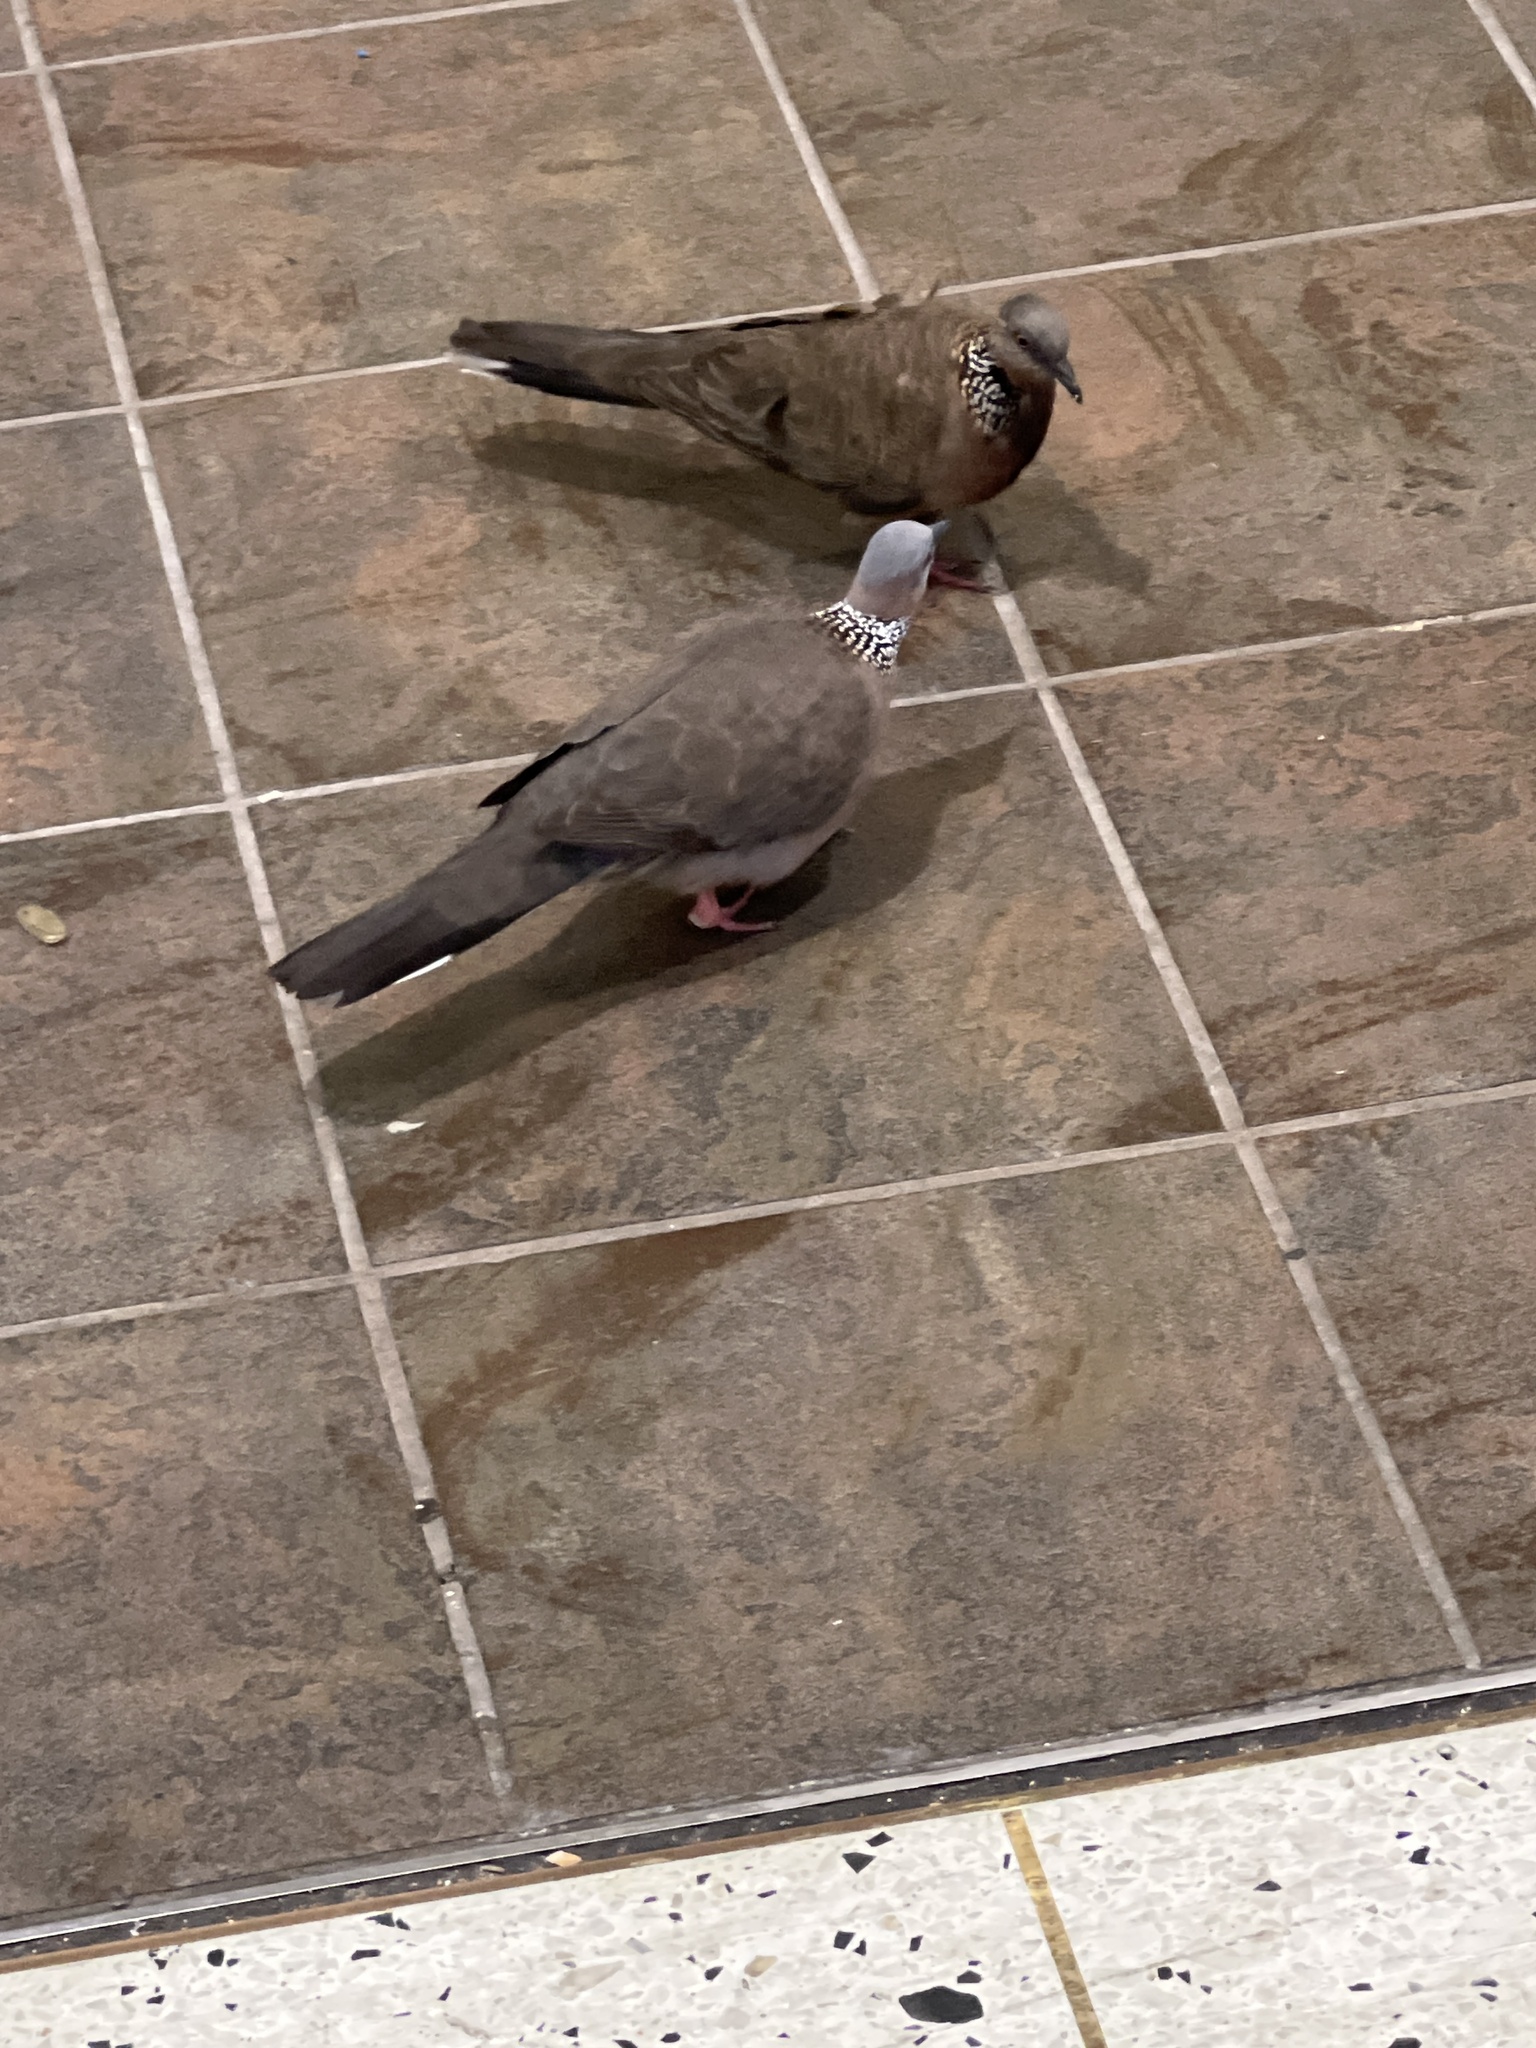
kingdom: Animalia
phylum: Chordata
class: Aves
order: Columbiformes
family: Columbidae
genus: Spilopelia
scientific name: Spilopelia chinensis
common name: Spotted dove
